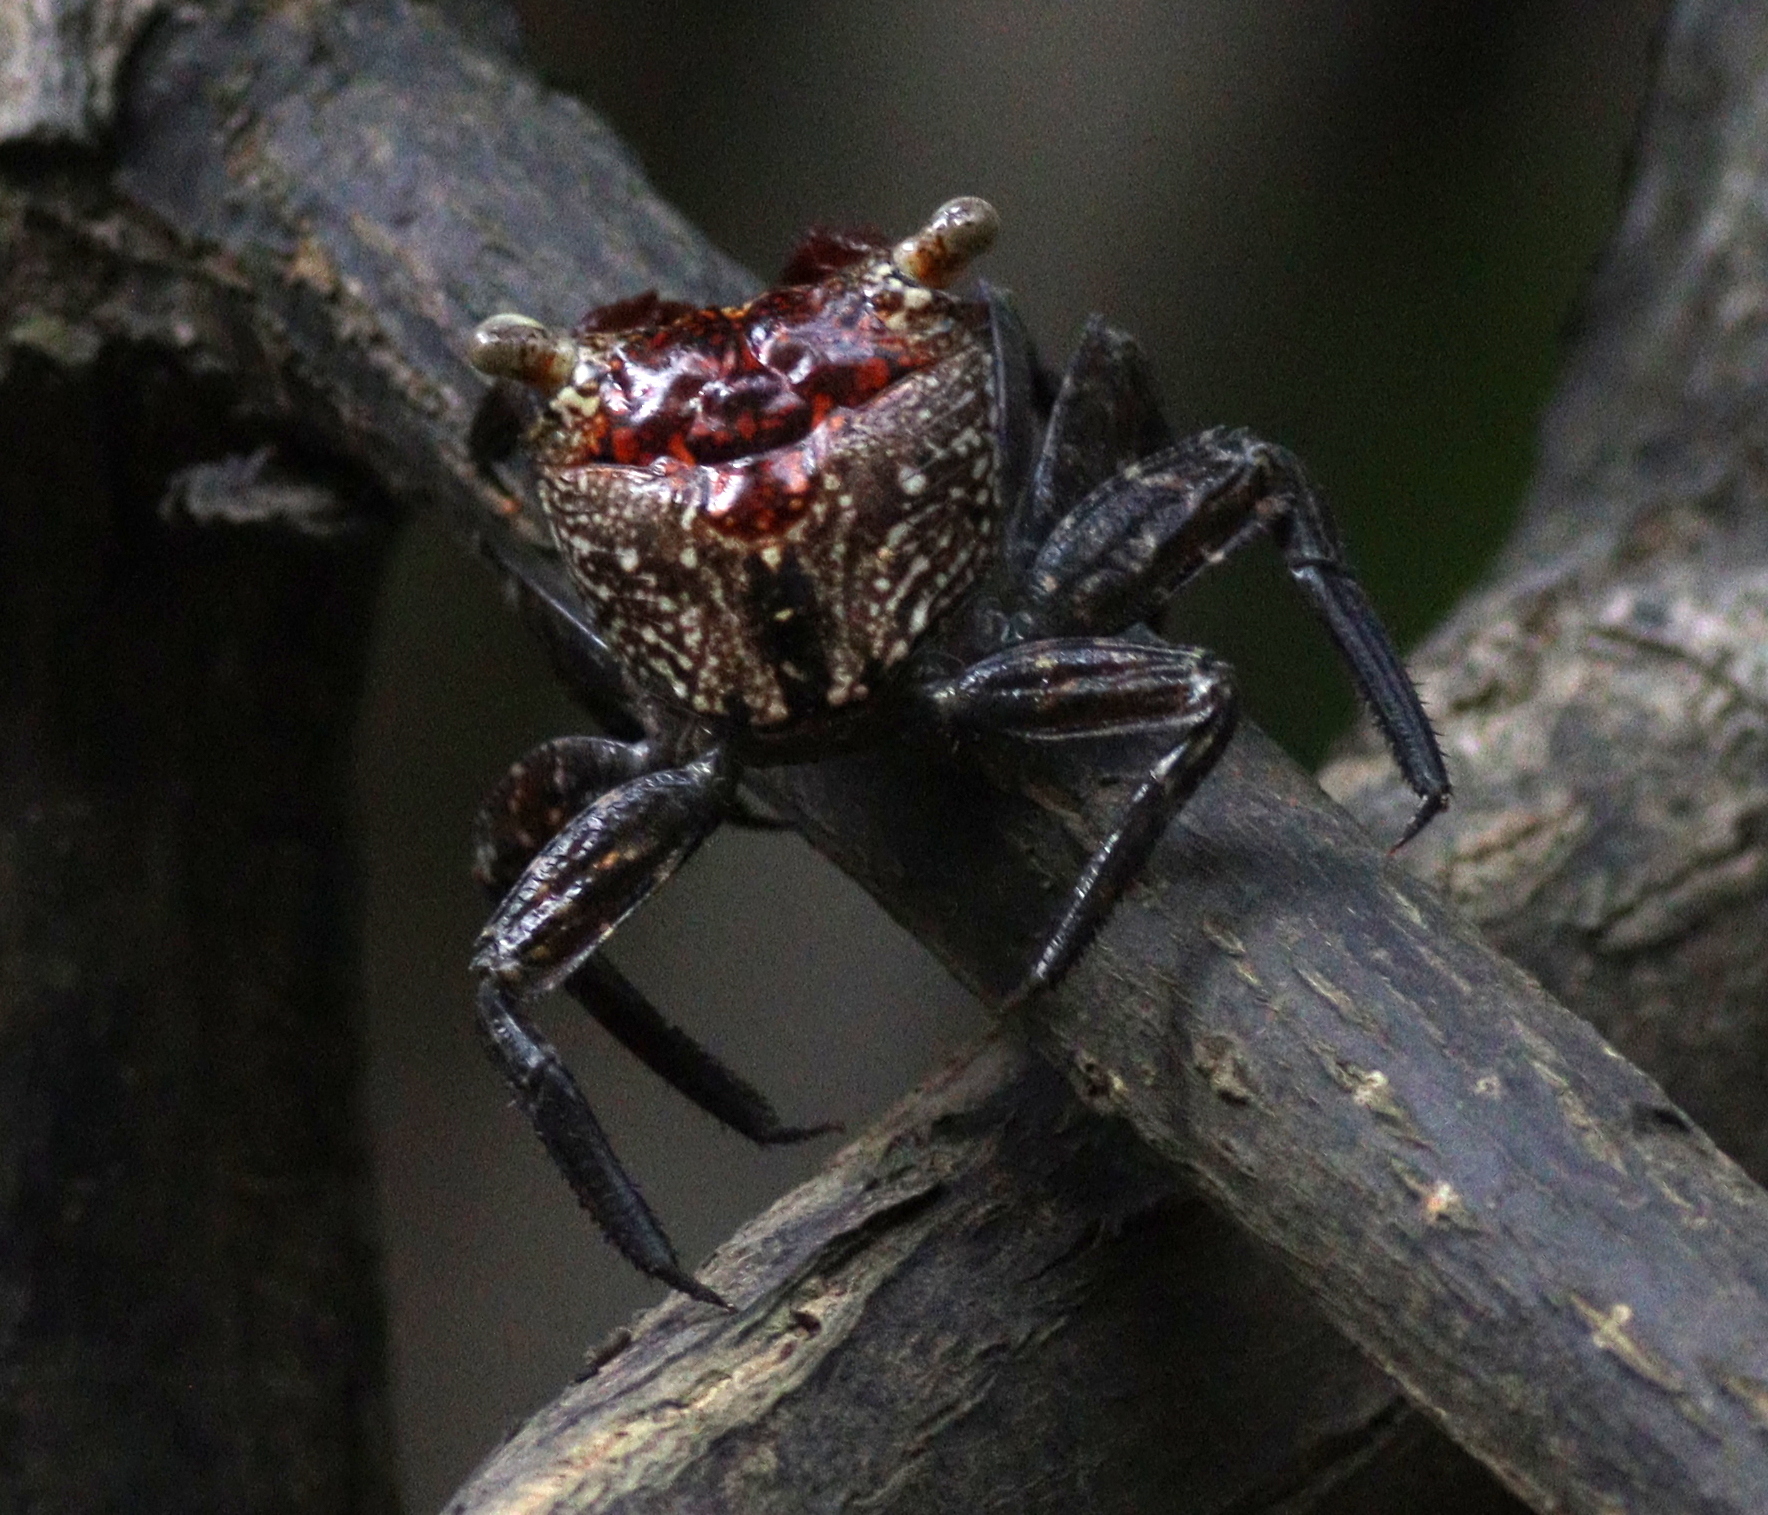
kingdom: Animalia
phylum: Arthropoda
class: Malacostraca
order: Decapoda
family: Sesarmidae
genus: Aratus
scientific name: Aratus pacificus
